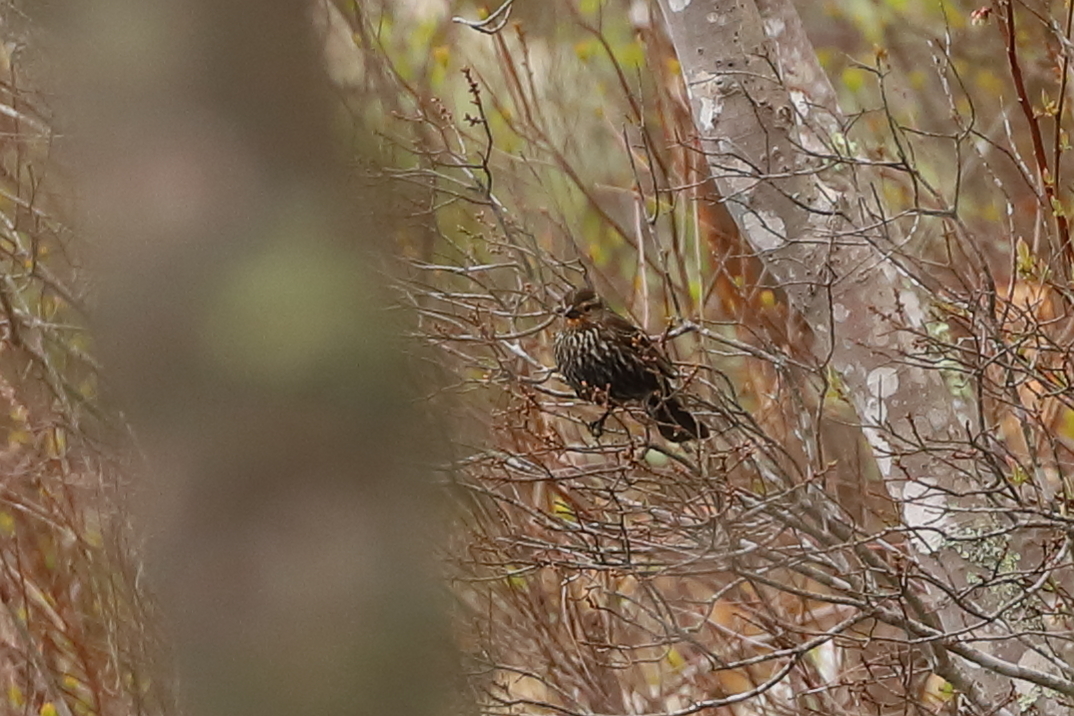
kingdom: Animalia
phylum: Chordata
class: Aves
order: Passeriformes
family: Icteridae
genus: Agelaius
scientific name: Agelaius phoeniceus
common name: Red-winged blackbird
